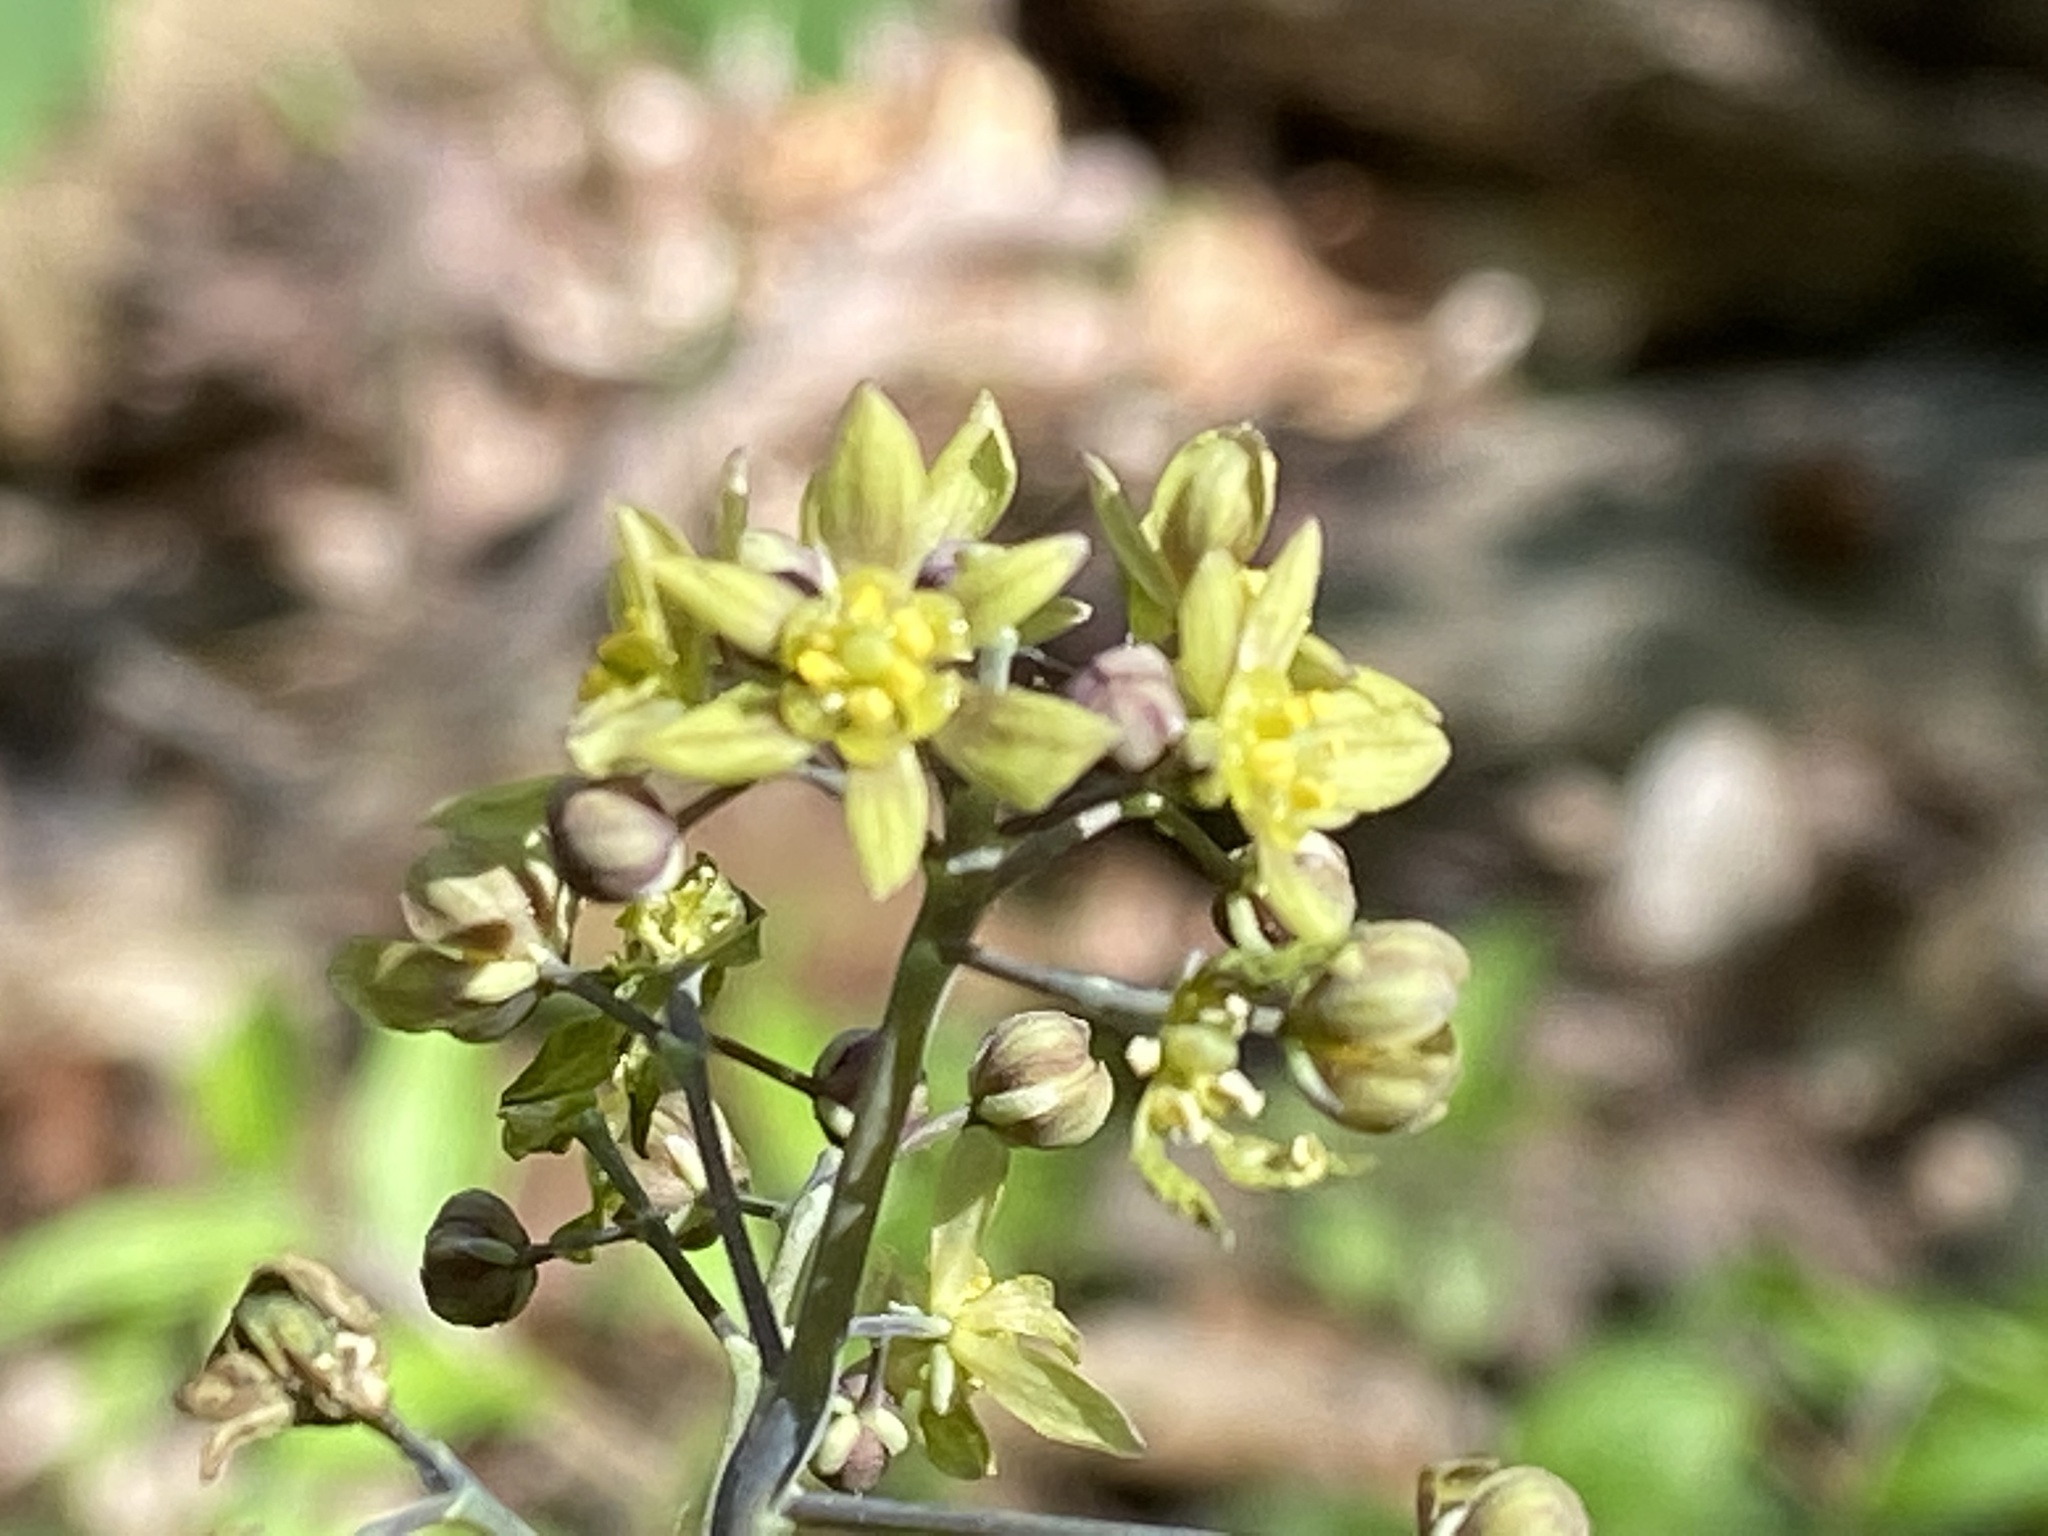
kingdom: Plantae
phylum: Tracheophyta
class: Magnoliopsida
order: Ranunculales
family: Berberidaceae
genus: Caulophyllum
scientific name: Caulophyllum thalictroides
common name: Blue cohosh
